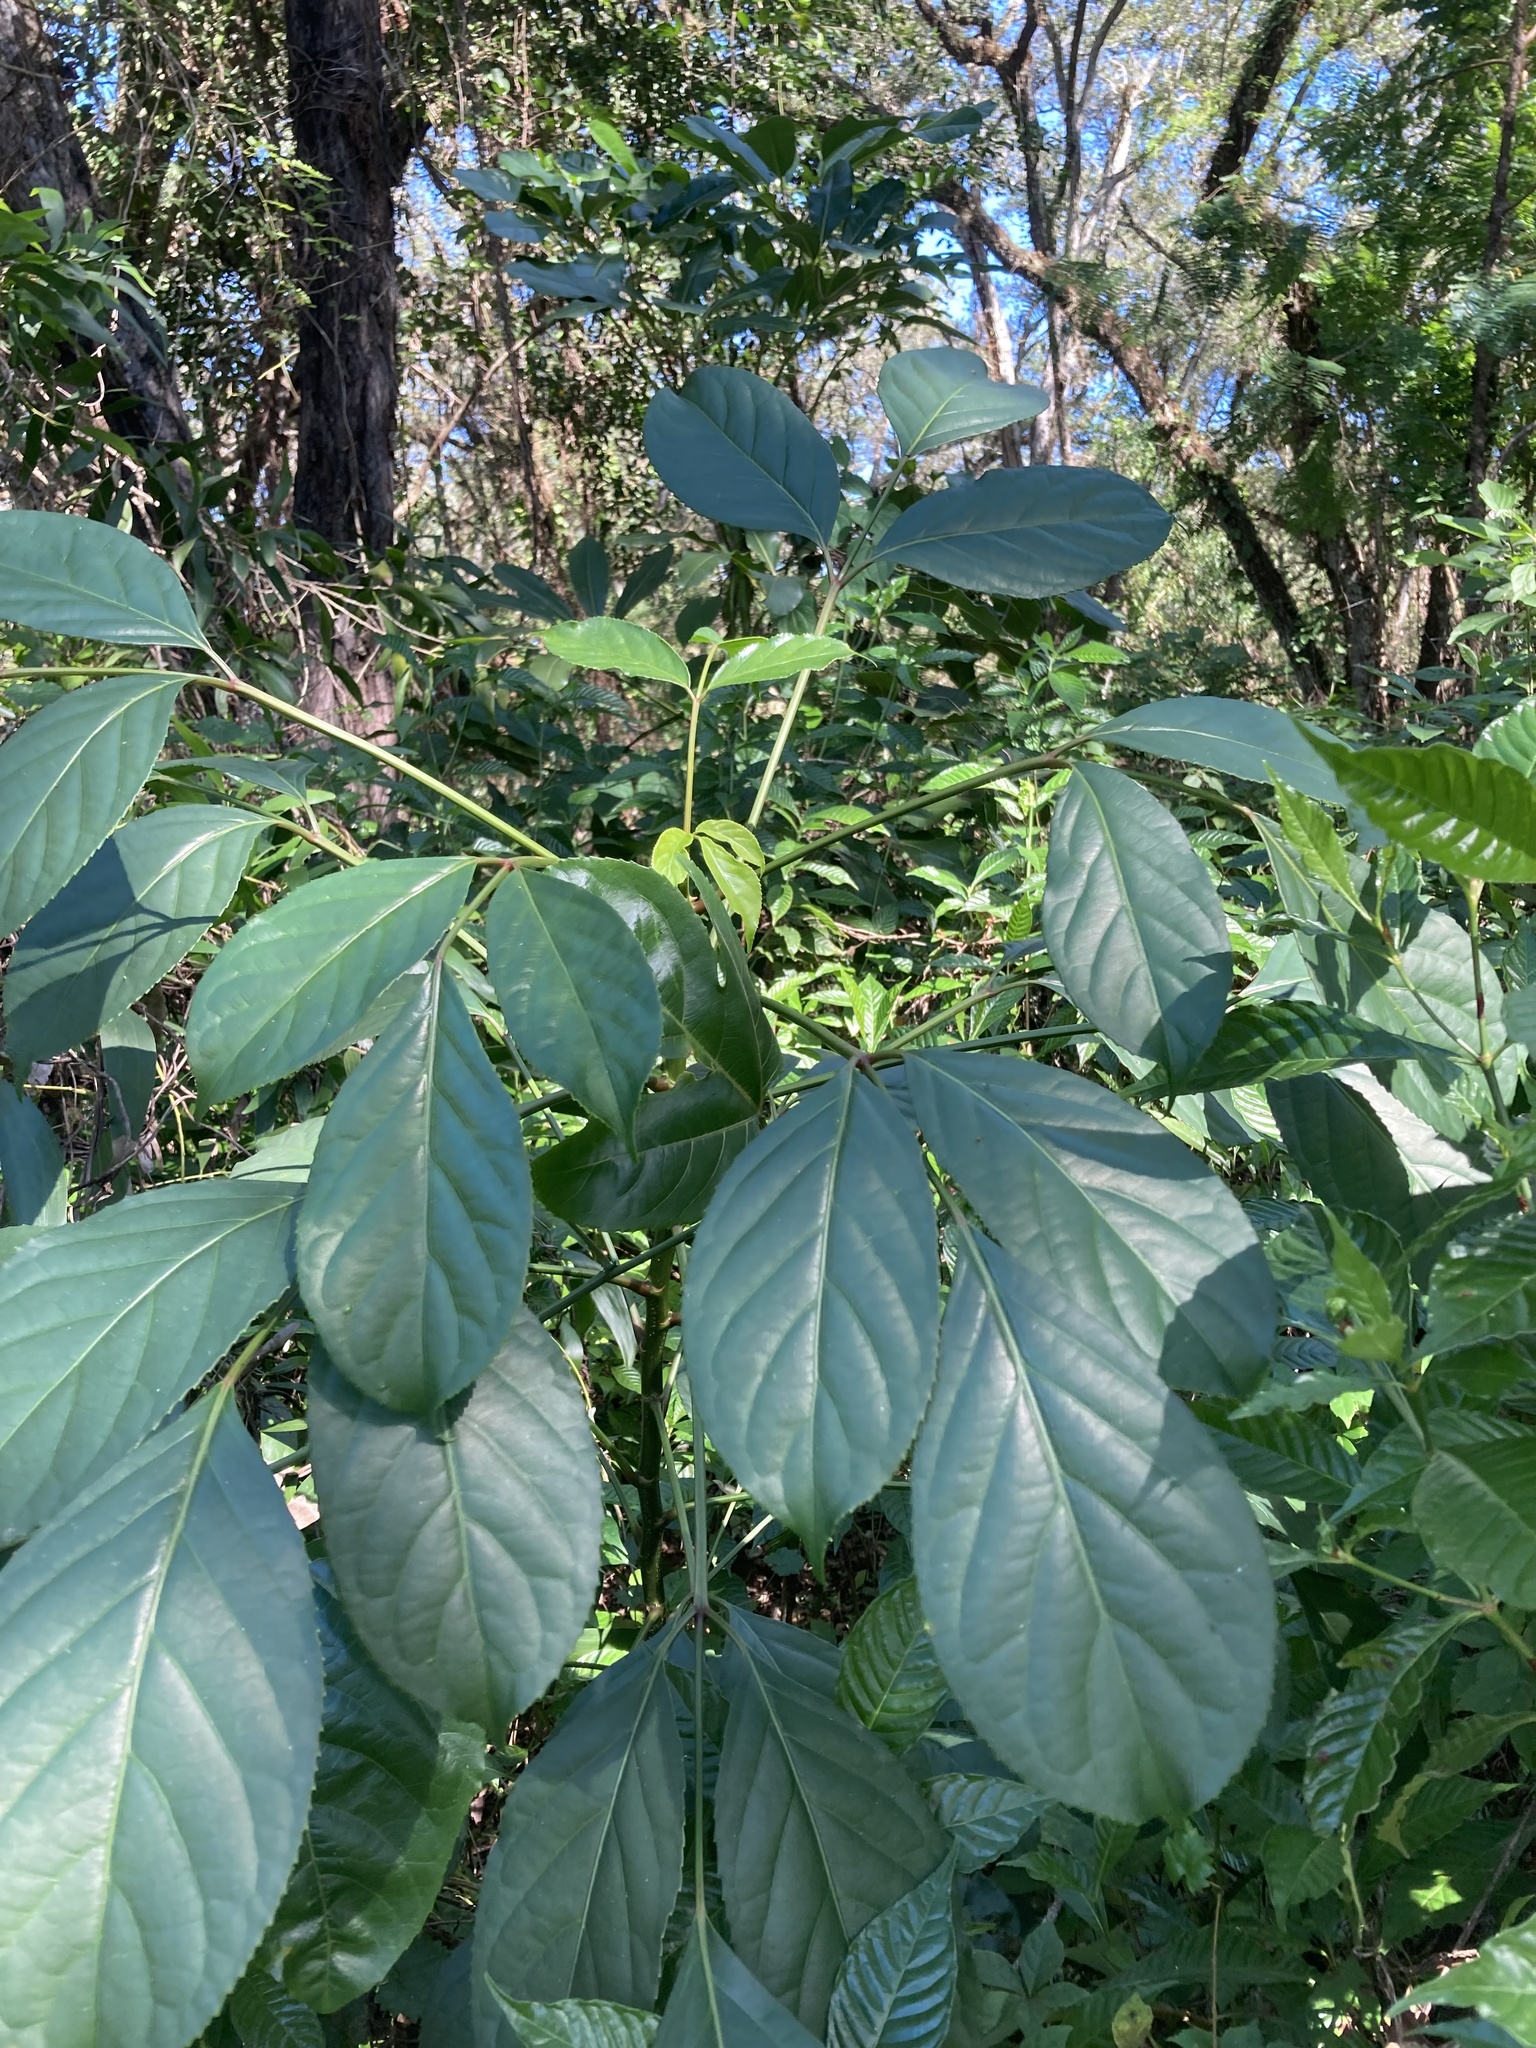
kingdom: Plantae
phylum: Tracheophyta
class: Magnoliopsida
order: Malpighiales
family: Phyllanthaceae
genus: Bischofia
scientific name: Bischofia javanica
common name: Javanese bishopwood
